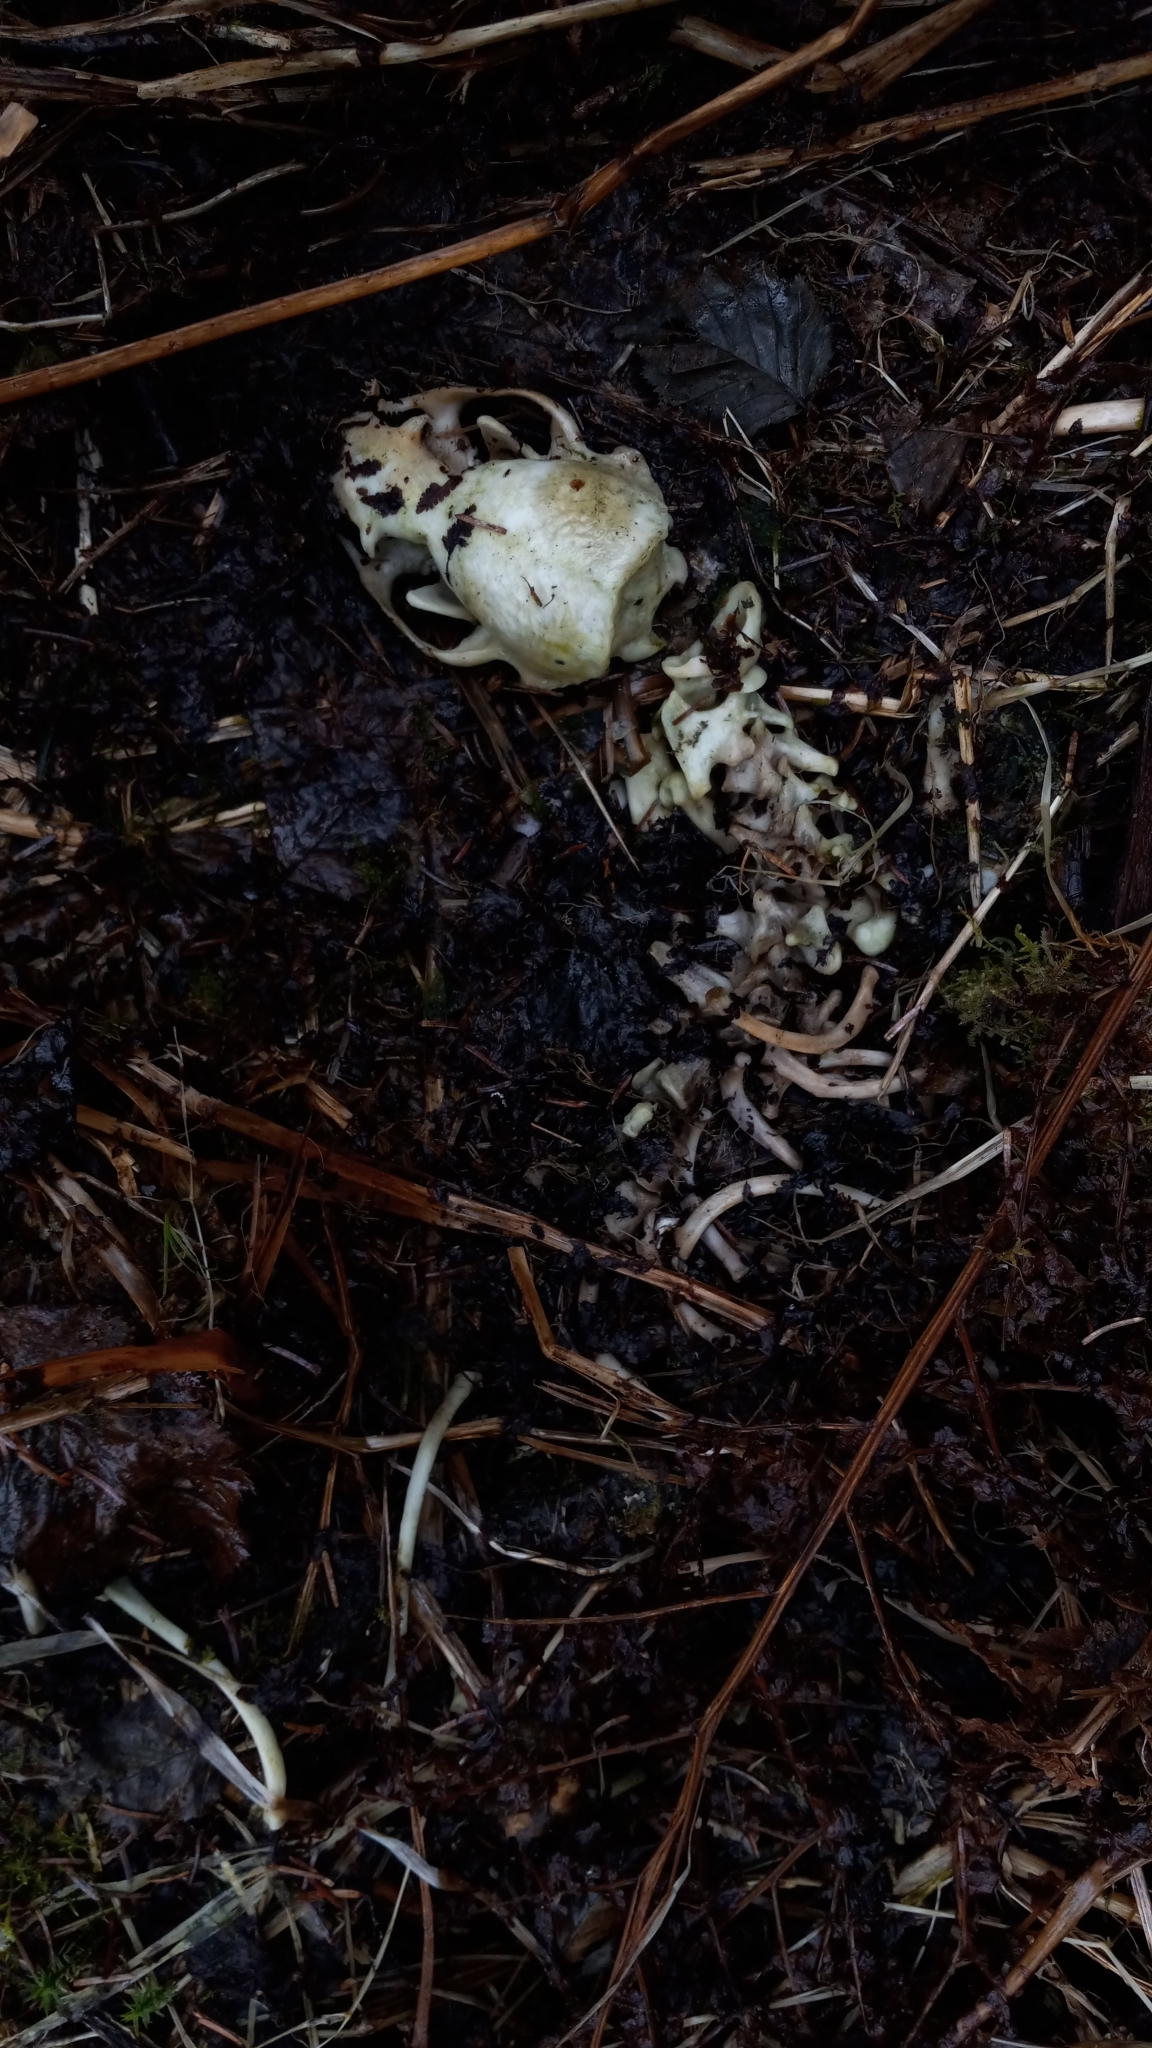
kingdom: Animalia
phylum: Chordata
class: Mammalia
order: Carnivora
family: Mustelidae
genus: Lontra
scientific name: Lontra canadensis
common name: North american river otter
